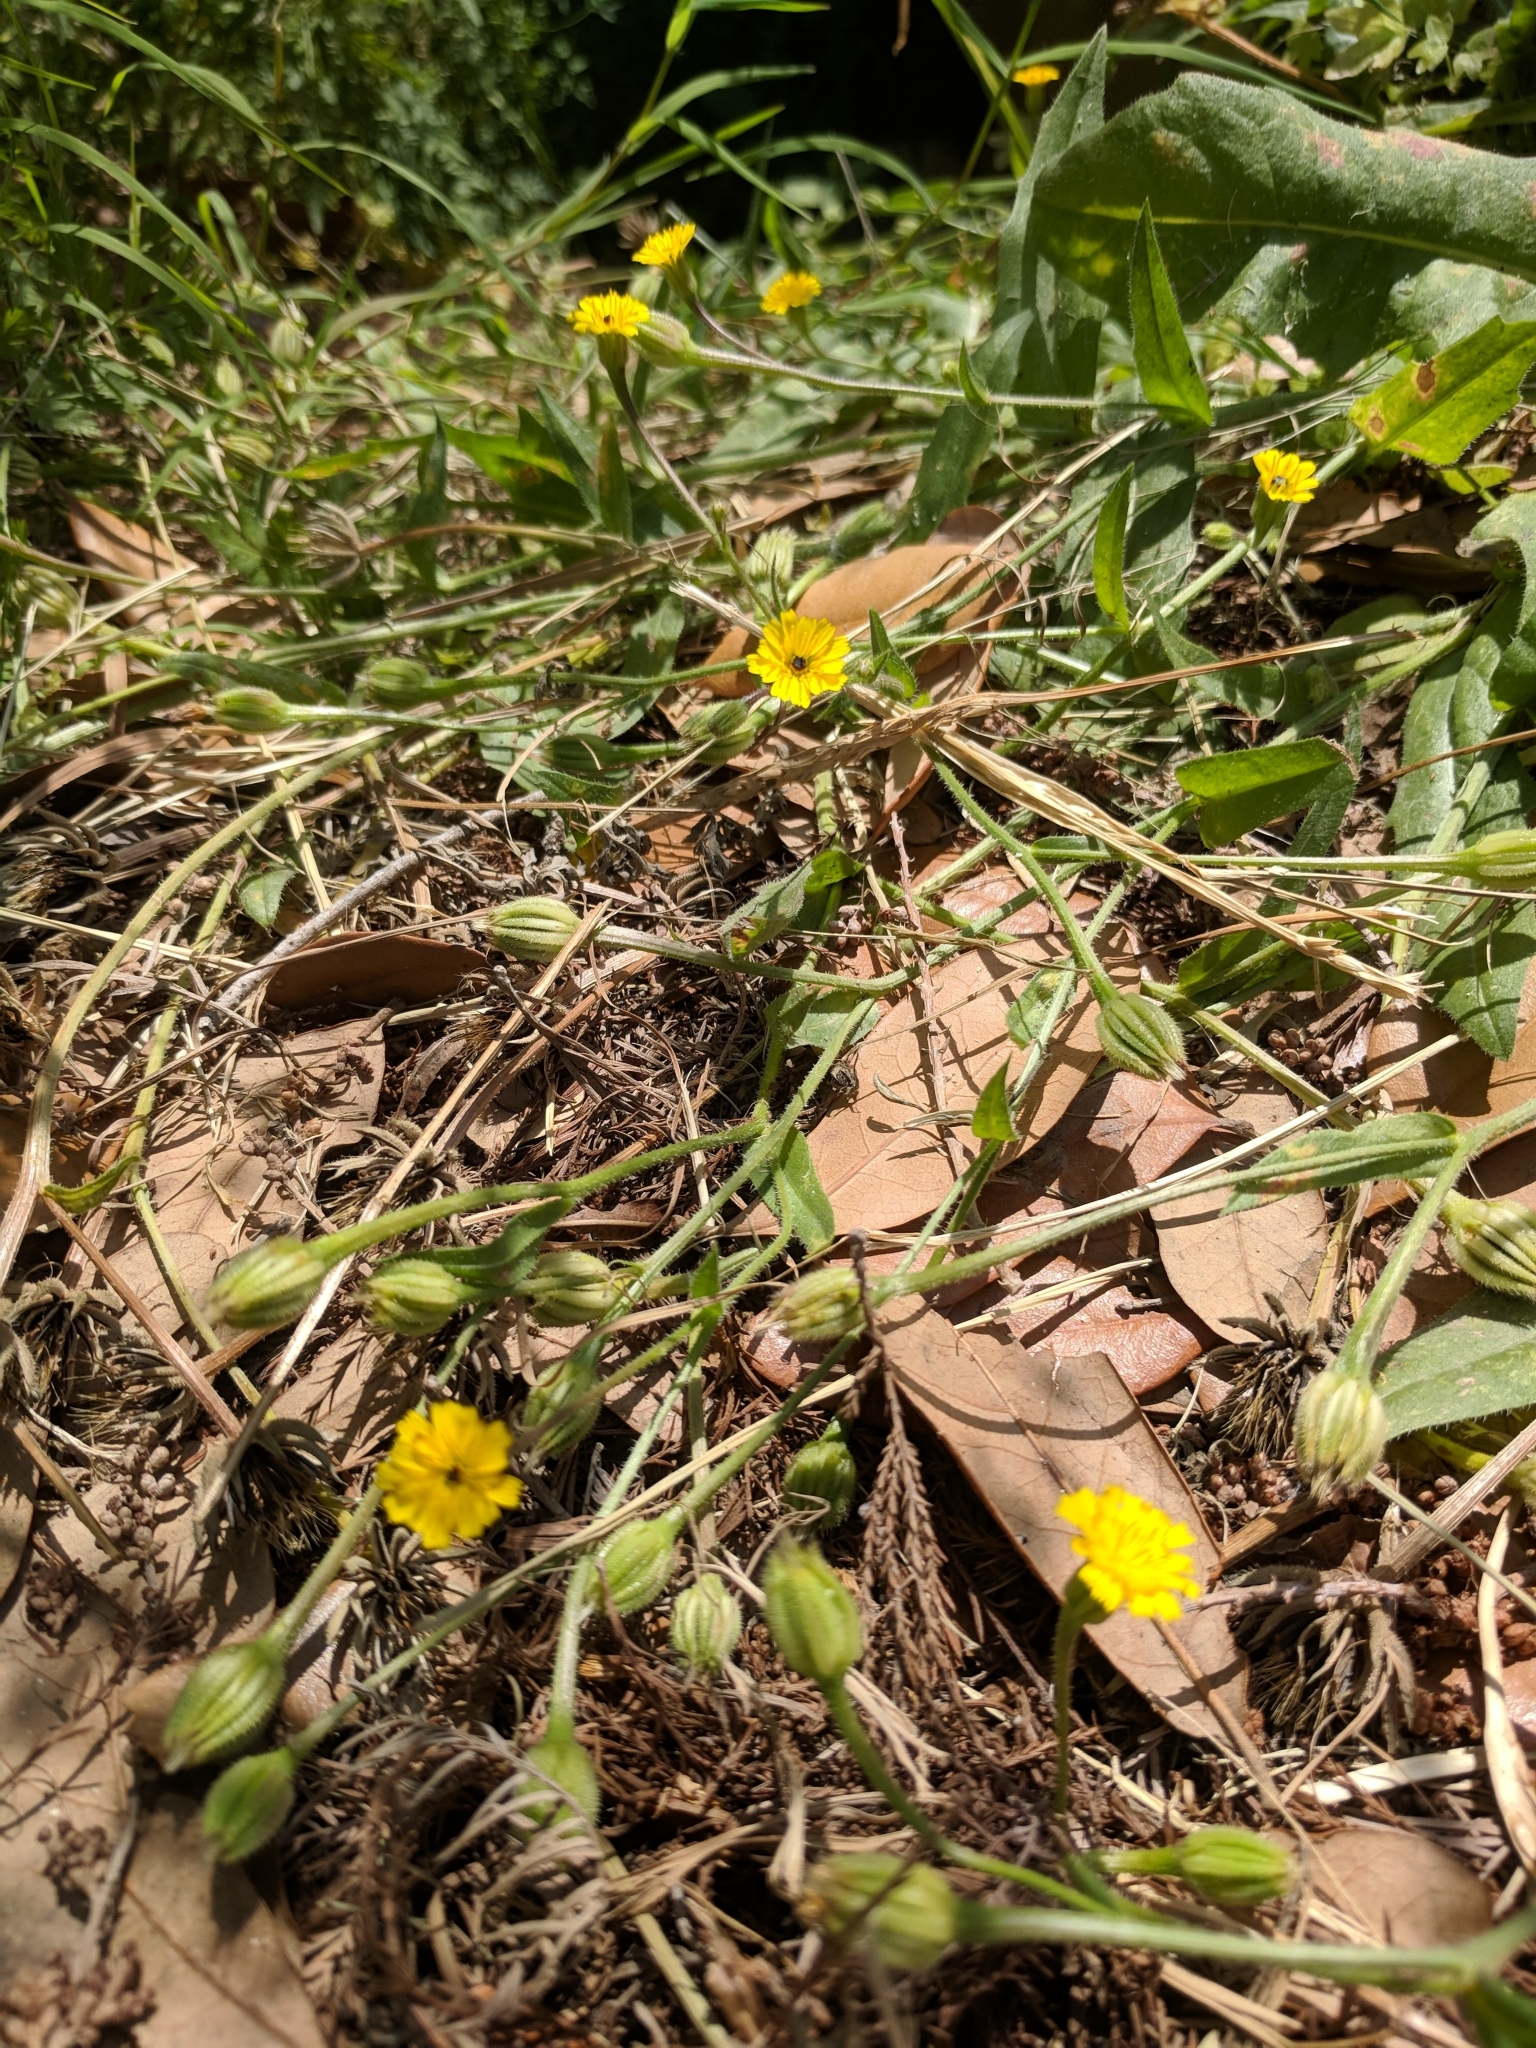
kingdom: Plantae
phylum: Tracheophyta
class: Magnoliopsida
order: Asterales
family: Asteraceae
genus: Hedypnois
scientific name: Hedypnois rhagadioloides
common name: Cretan weed
